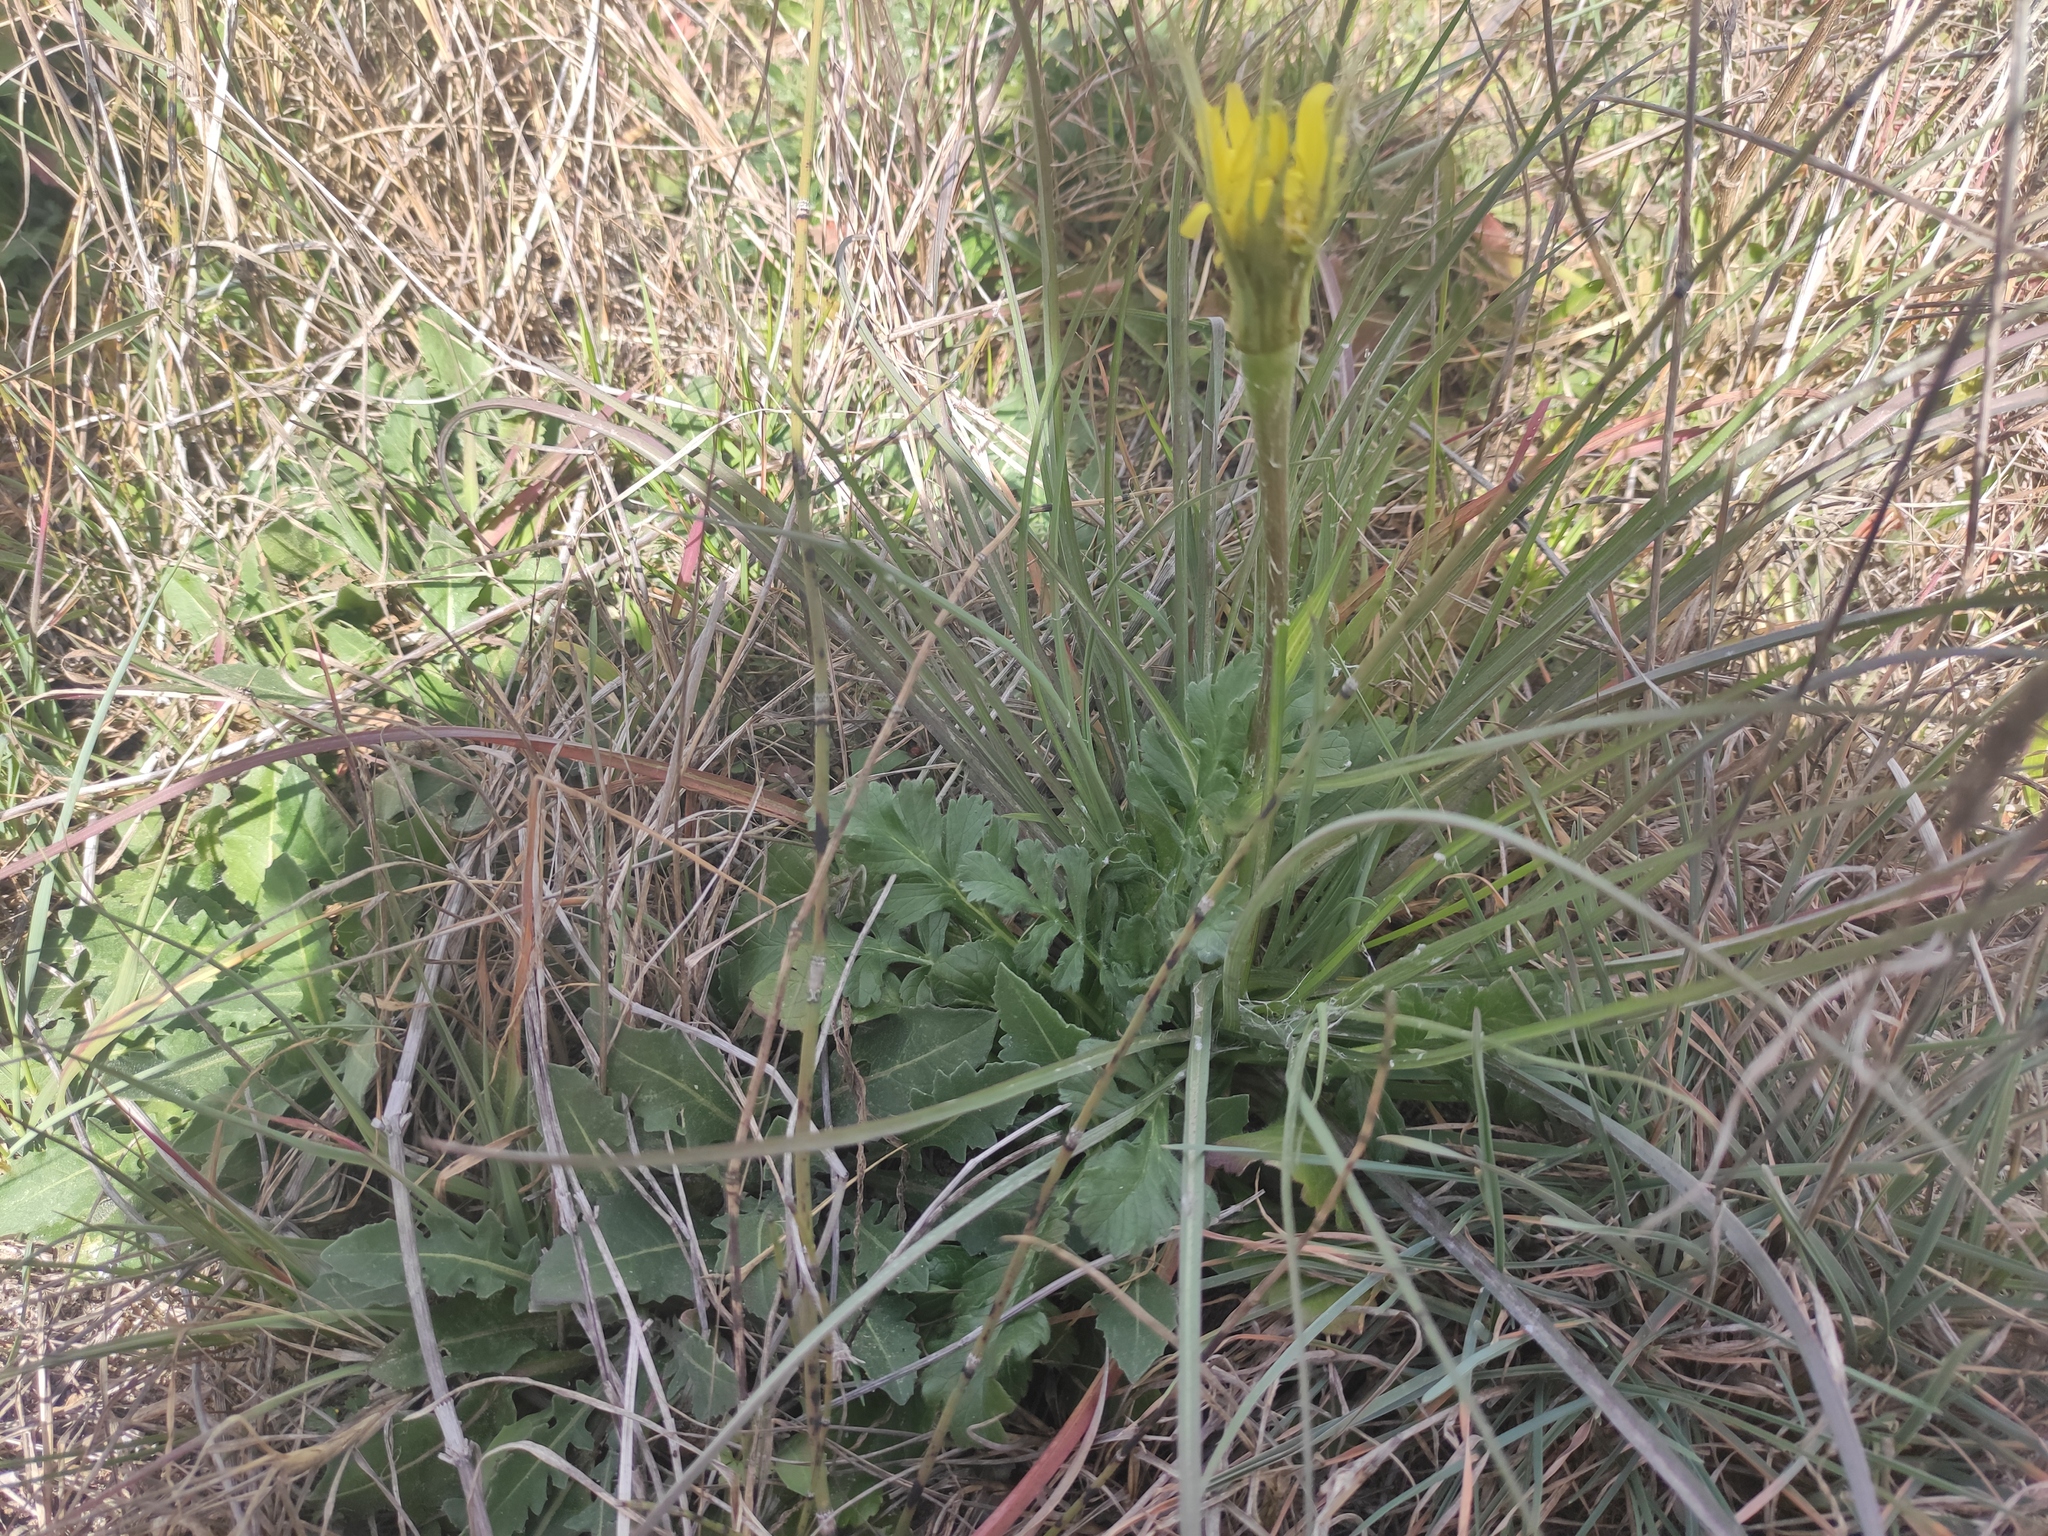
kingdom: Plantae
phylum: Tracheophyta
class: Magnoliopsida
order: Asterales
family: Asteraceae
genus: Tragopogon
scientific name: Tragopogon dubius
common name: Yellow salsify
